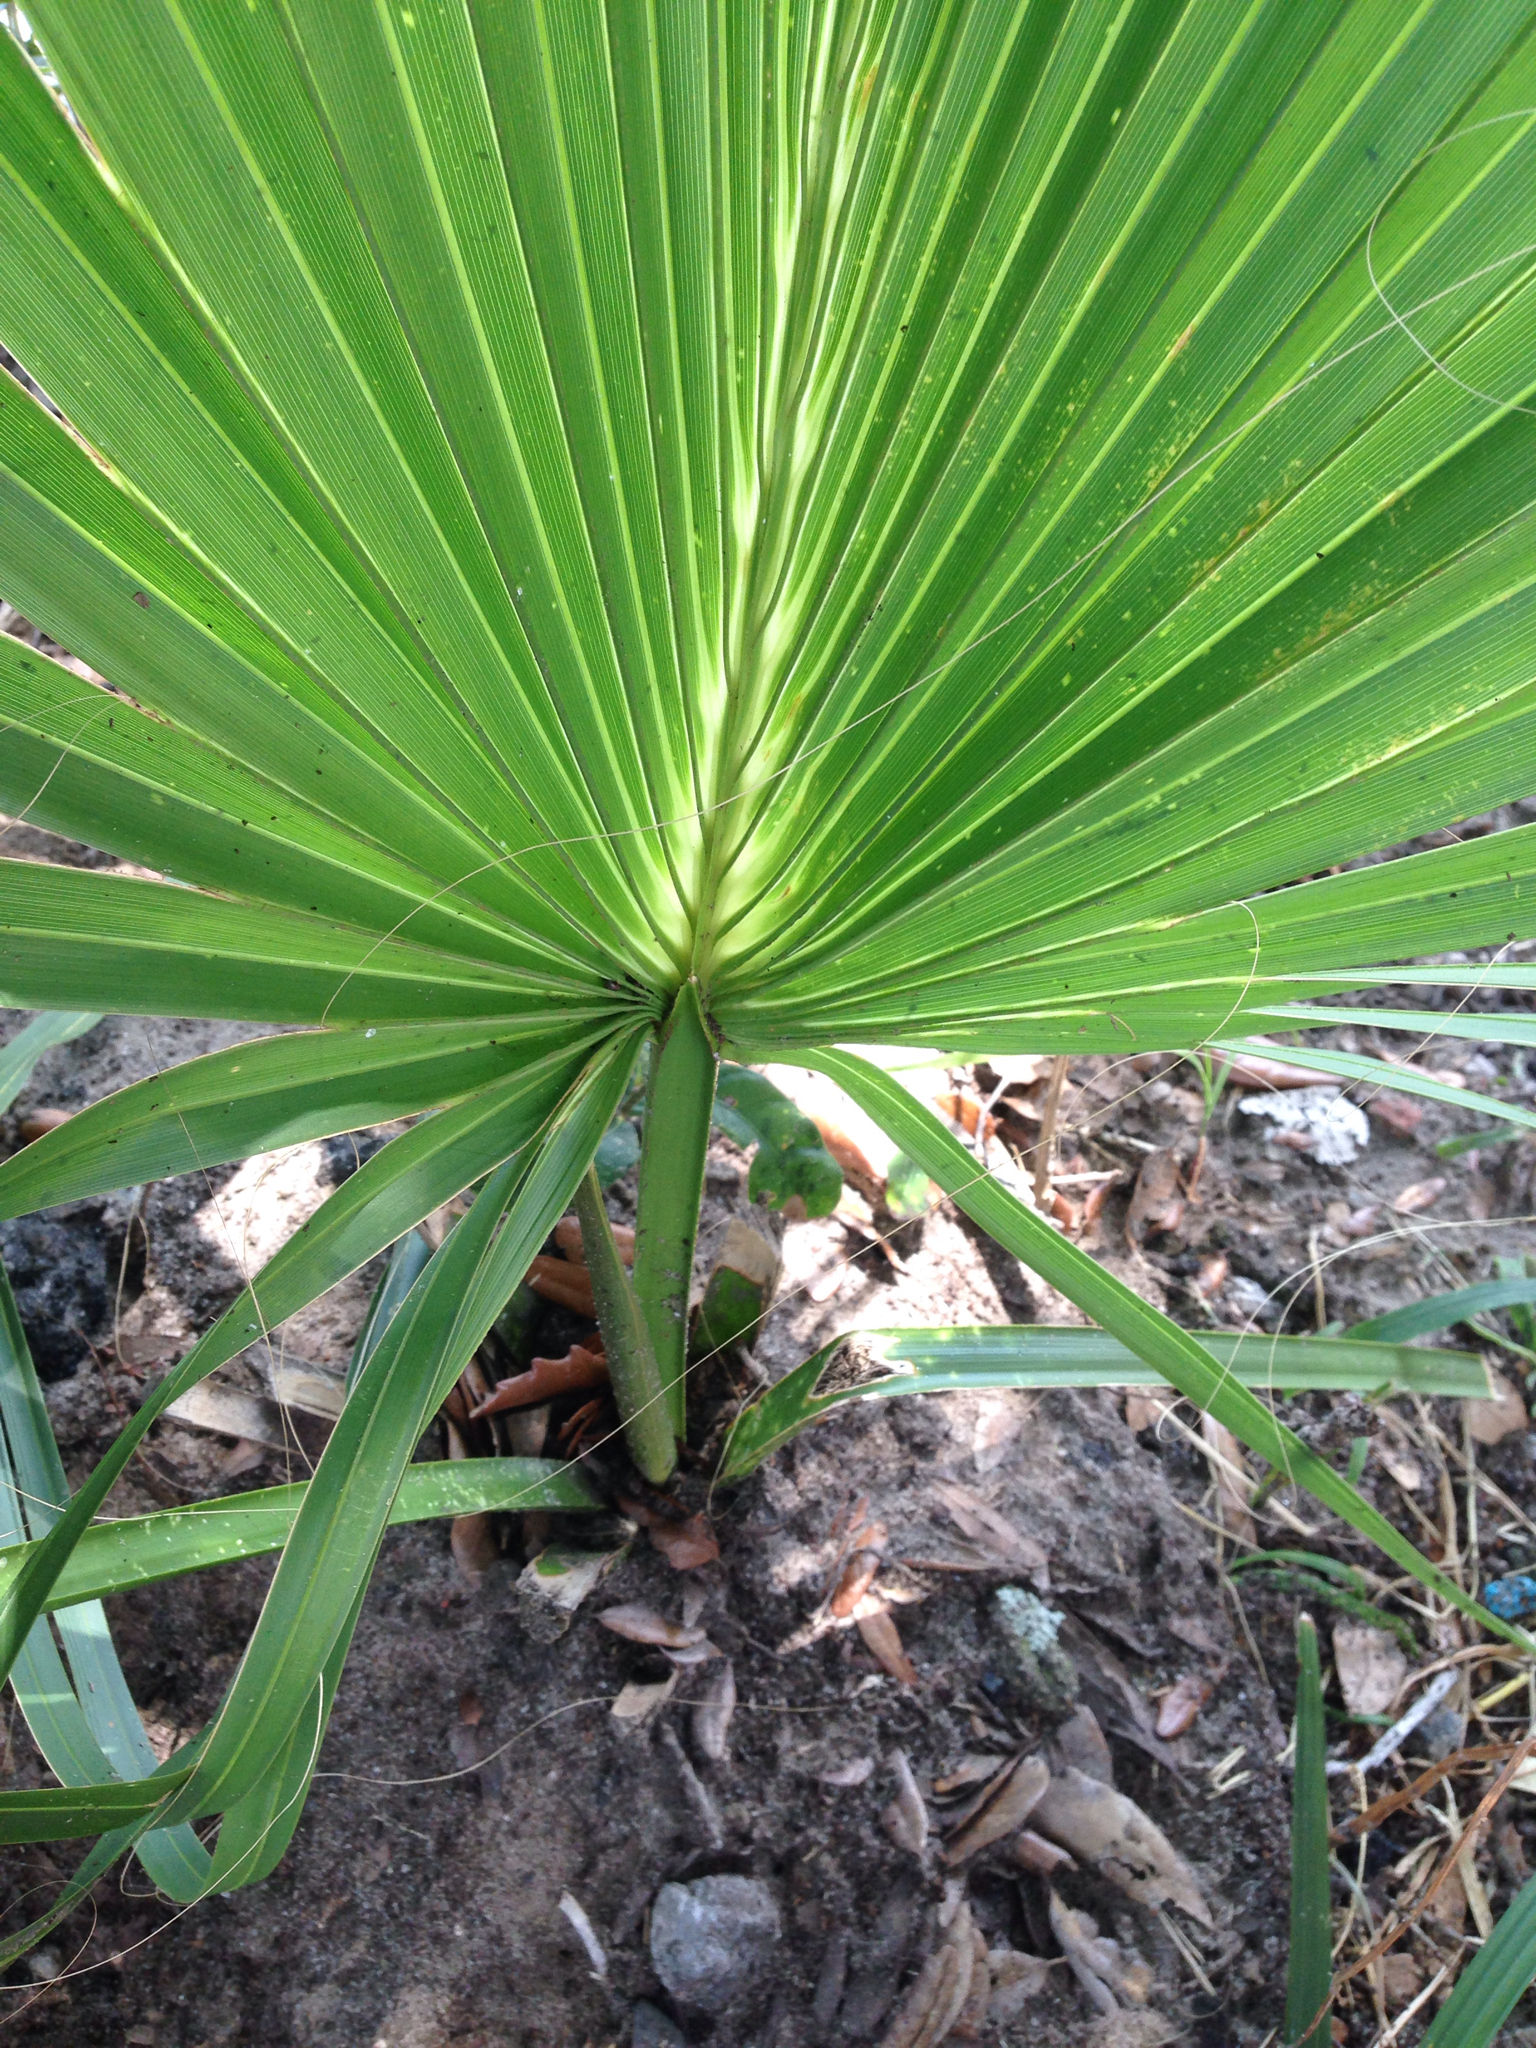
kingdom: Plantae
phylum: Tracheophyta
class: Liliopsida
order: Arecales
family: Arecaceae
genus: Sabal
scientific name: Sabal palmetto
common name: Blue palmetto
